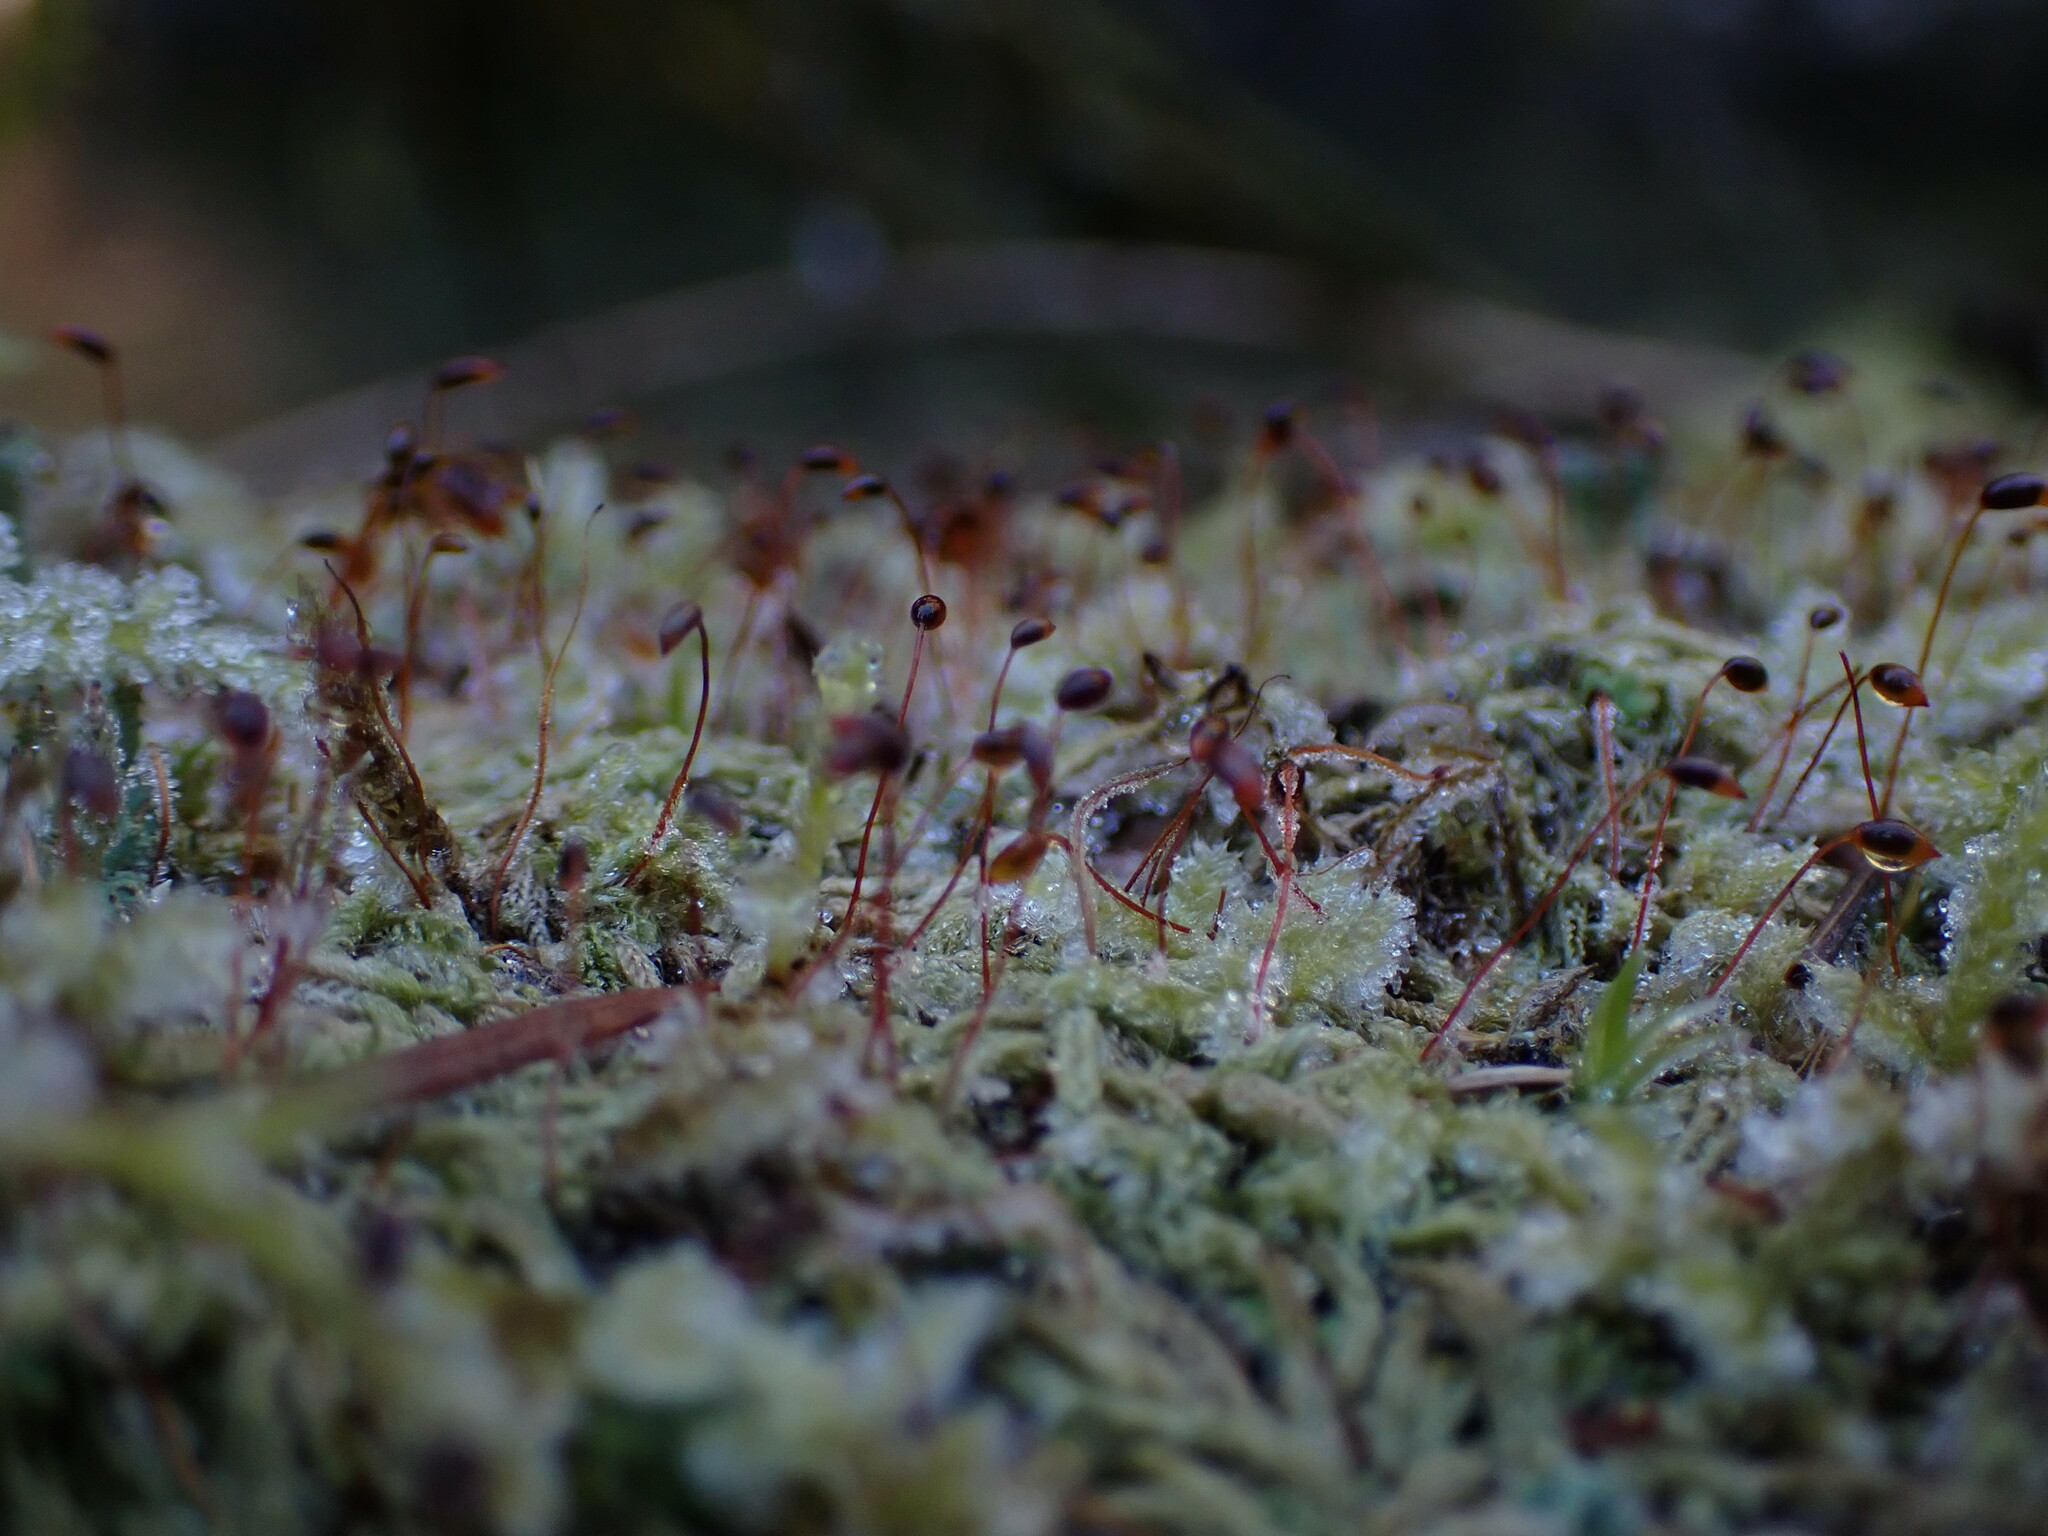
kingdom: Plantae
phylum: Bryophyta
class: Bryopsida
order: Hypnales
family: Pylaisiadelphaceae
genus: Trochophyllohypnum
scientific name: Trochophyllohypnum circinale
